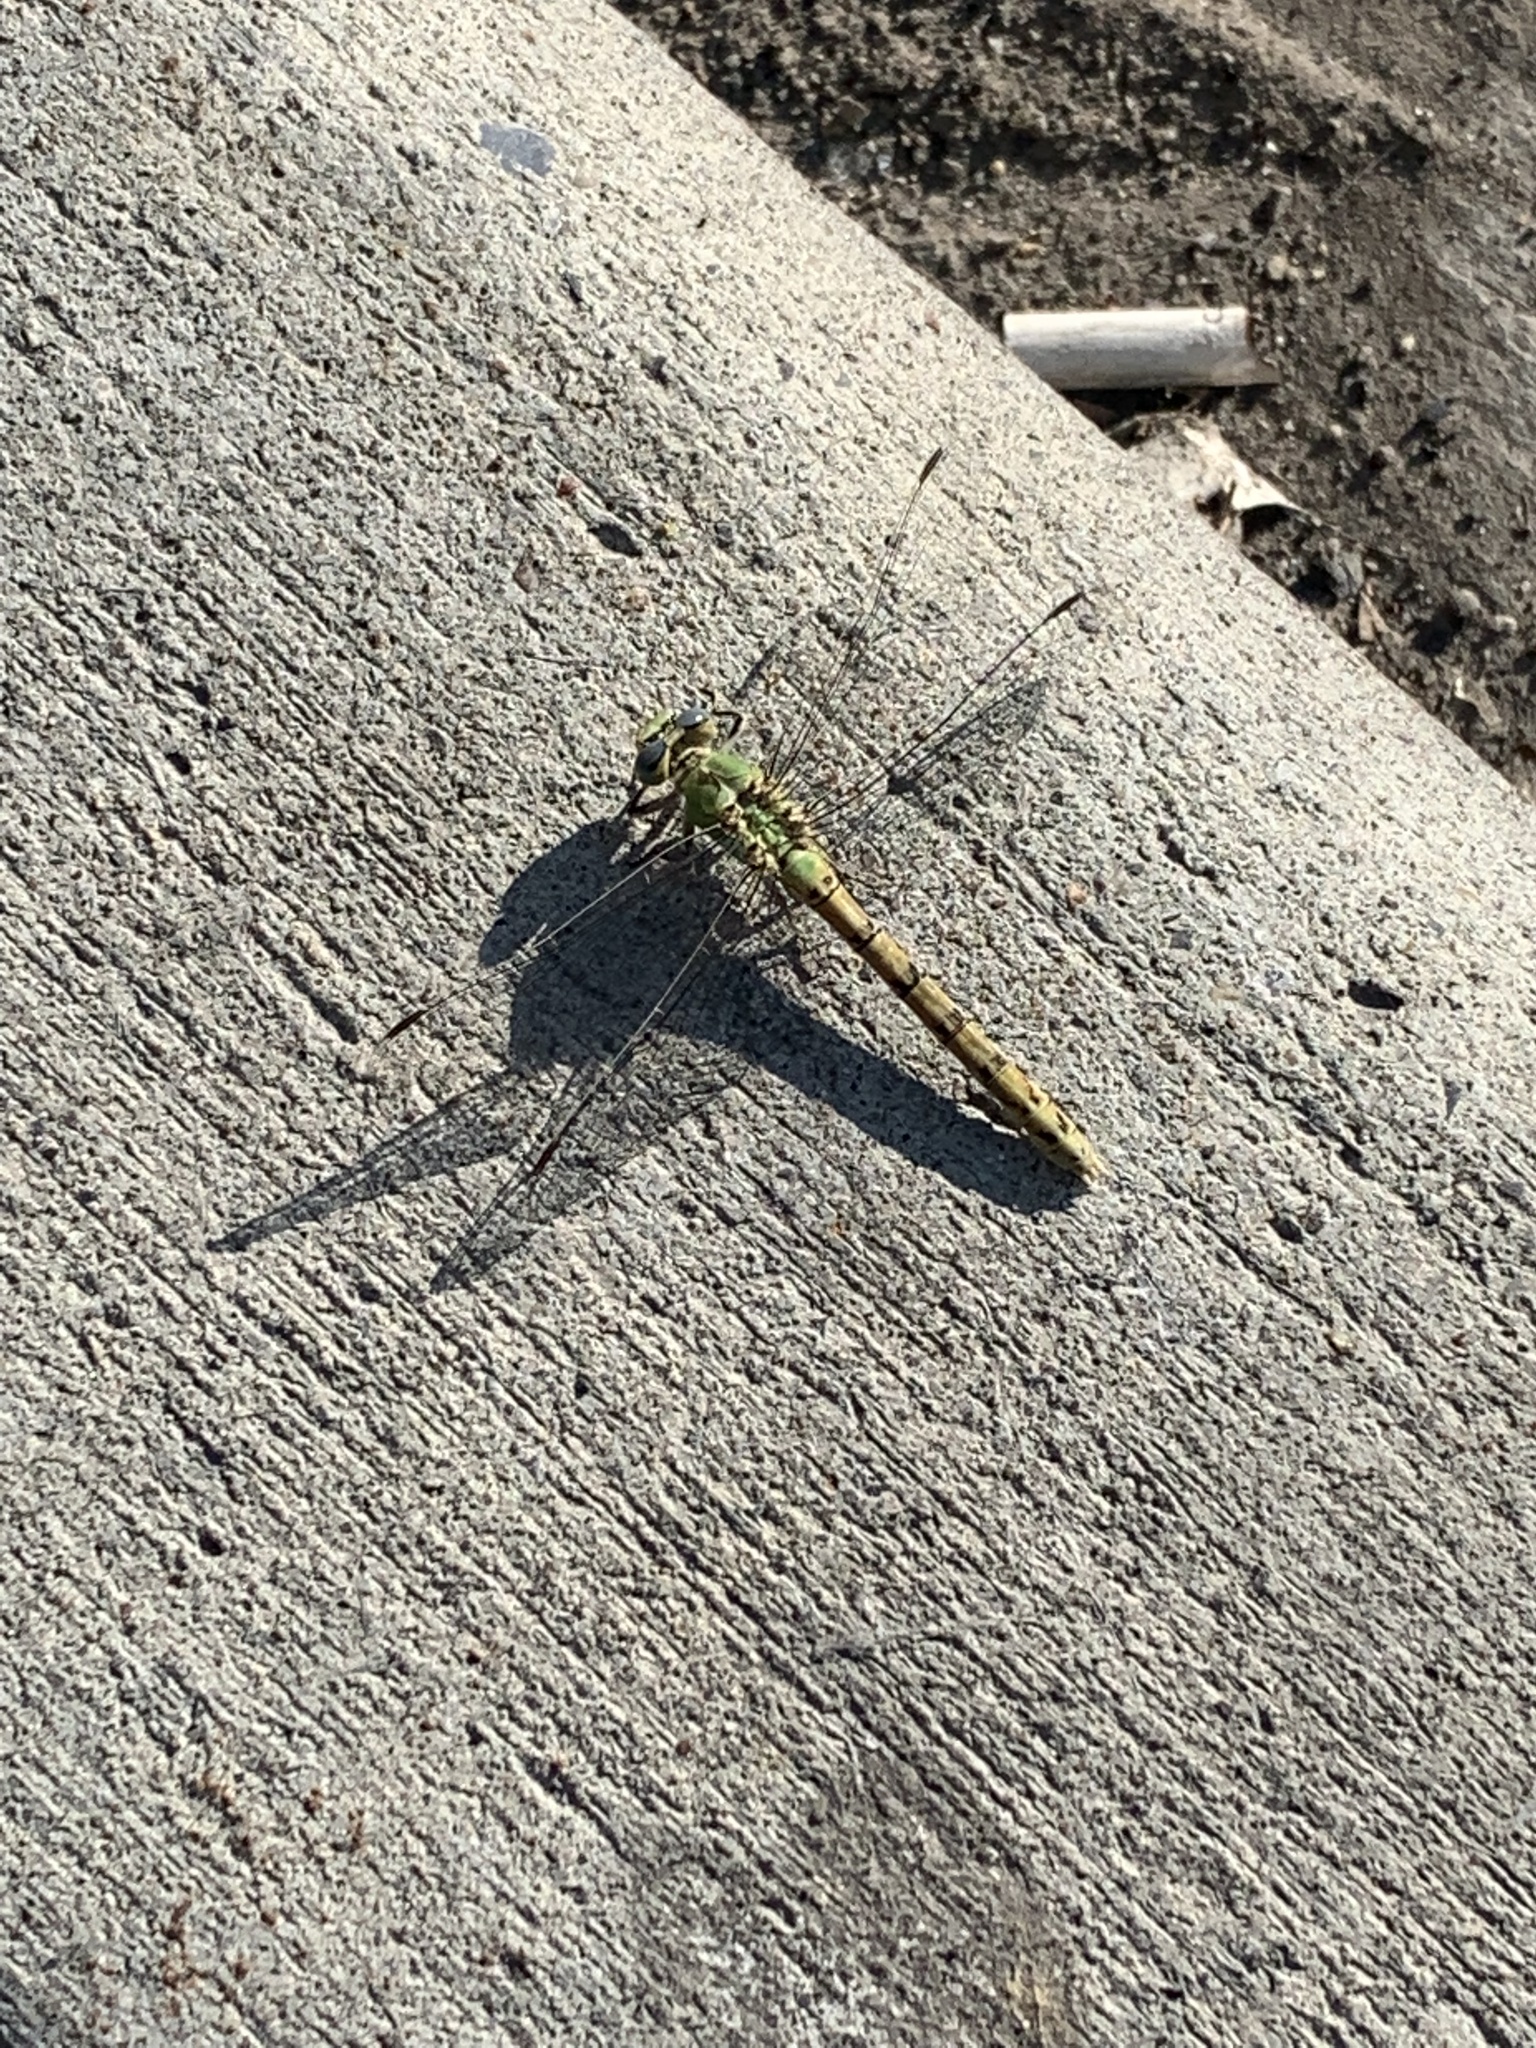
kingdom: Animalia
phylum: Arthropoda
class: Insecta
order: Odonata
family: Gomphidae
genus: Ophiogomphus
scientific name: Ophiogomphus severus
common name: Pale snaketail
